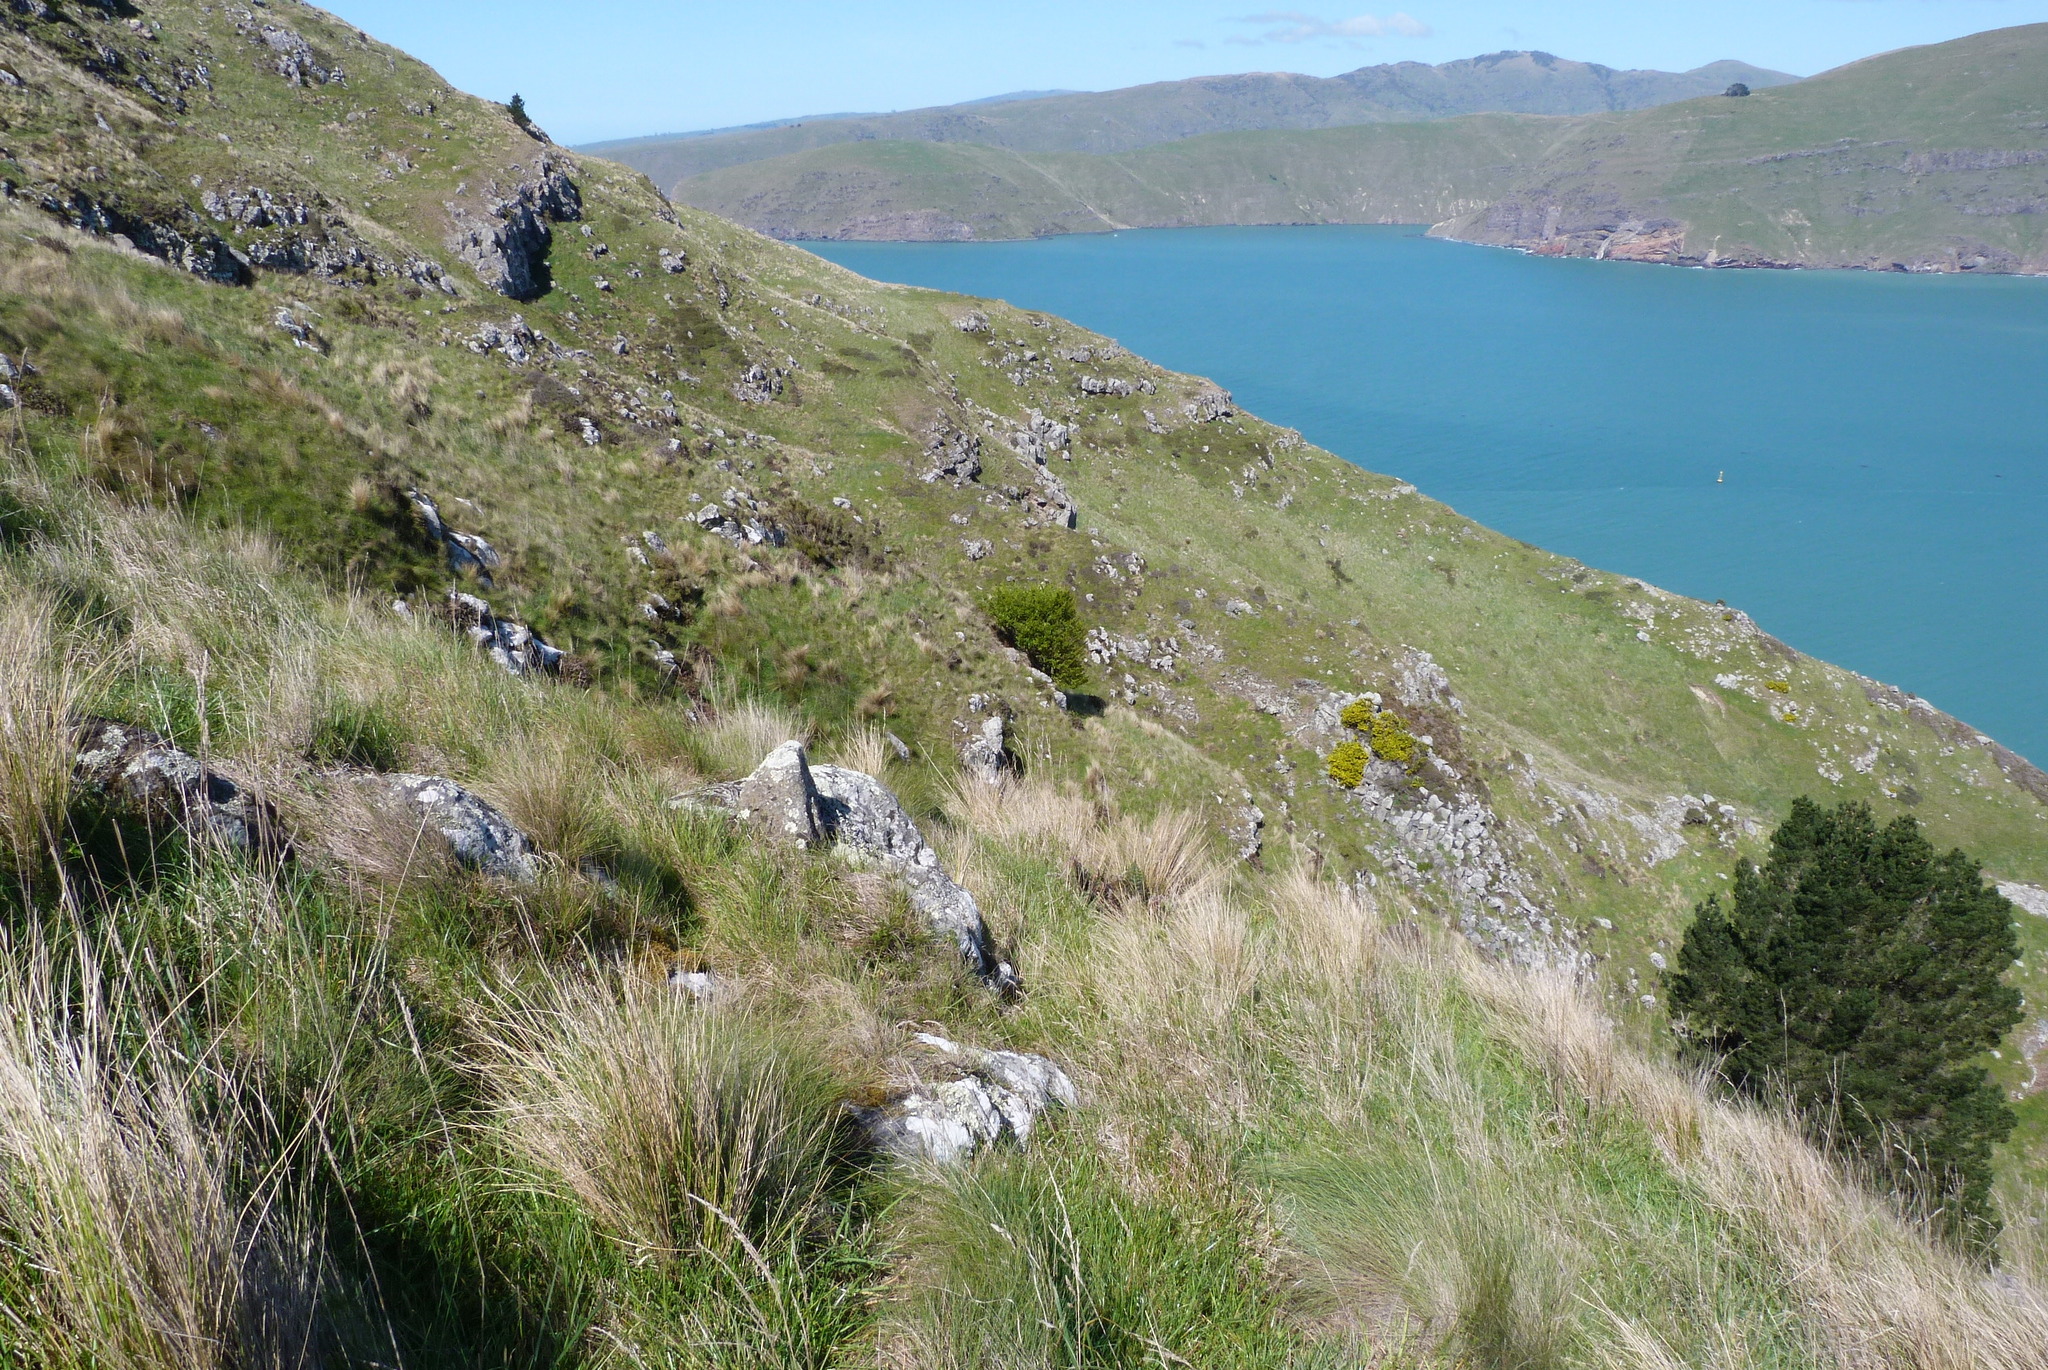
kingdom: Plantae
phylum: Tracheophyta
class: Magnoliopsida
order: Apiales
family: Griseliniaceae
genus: Griselinia
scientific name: Griselinia littoralis
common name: New zealand broadleaf
